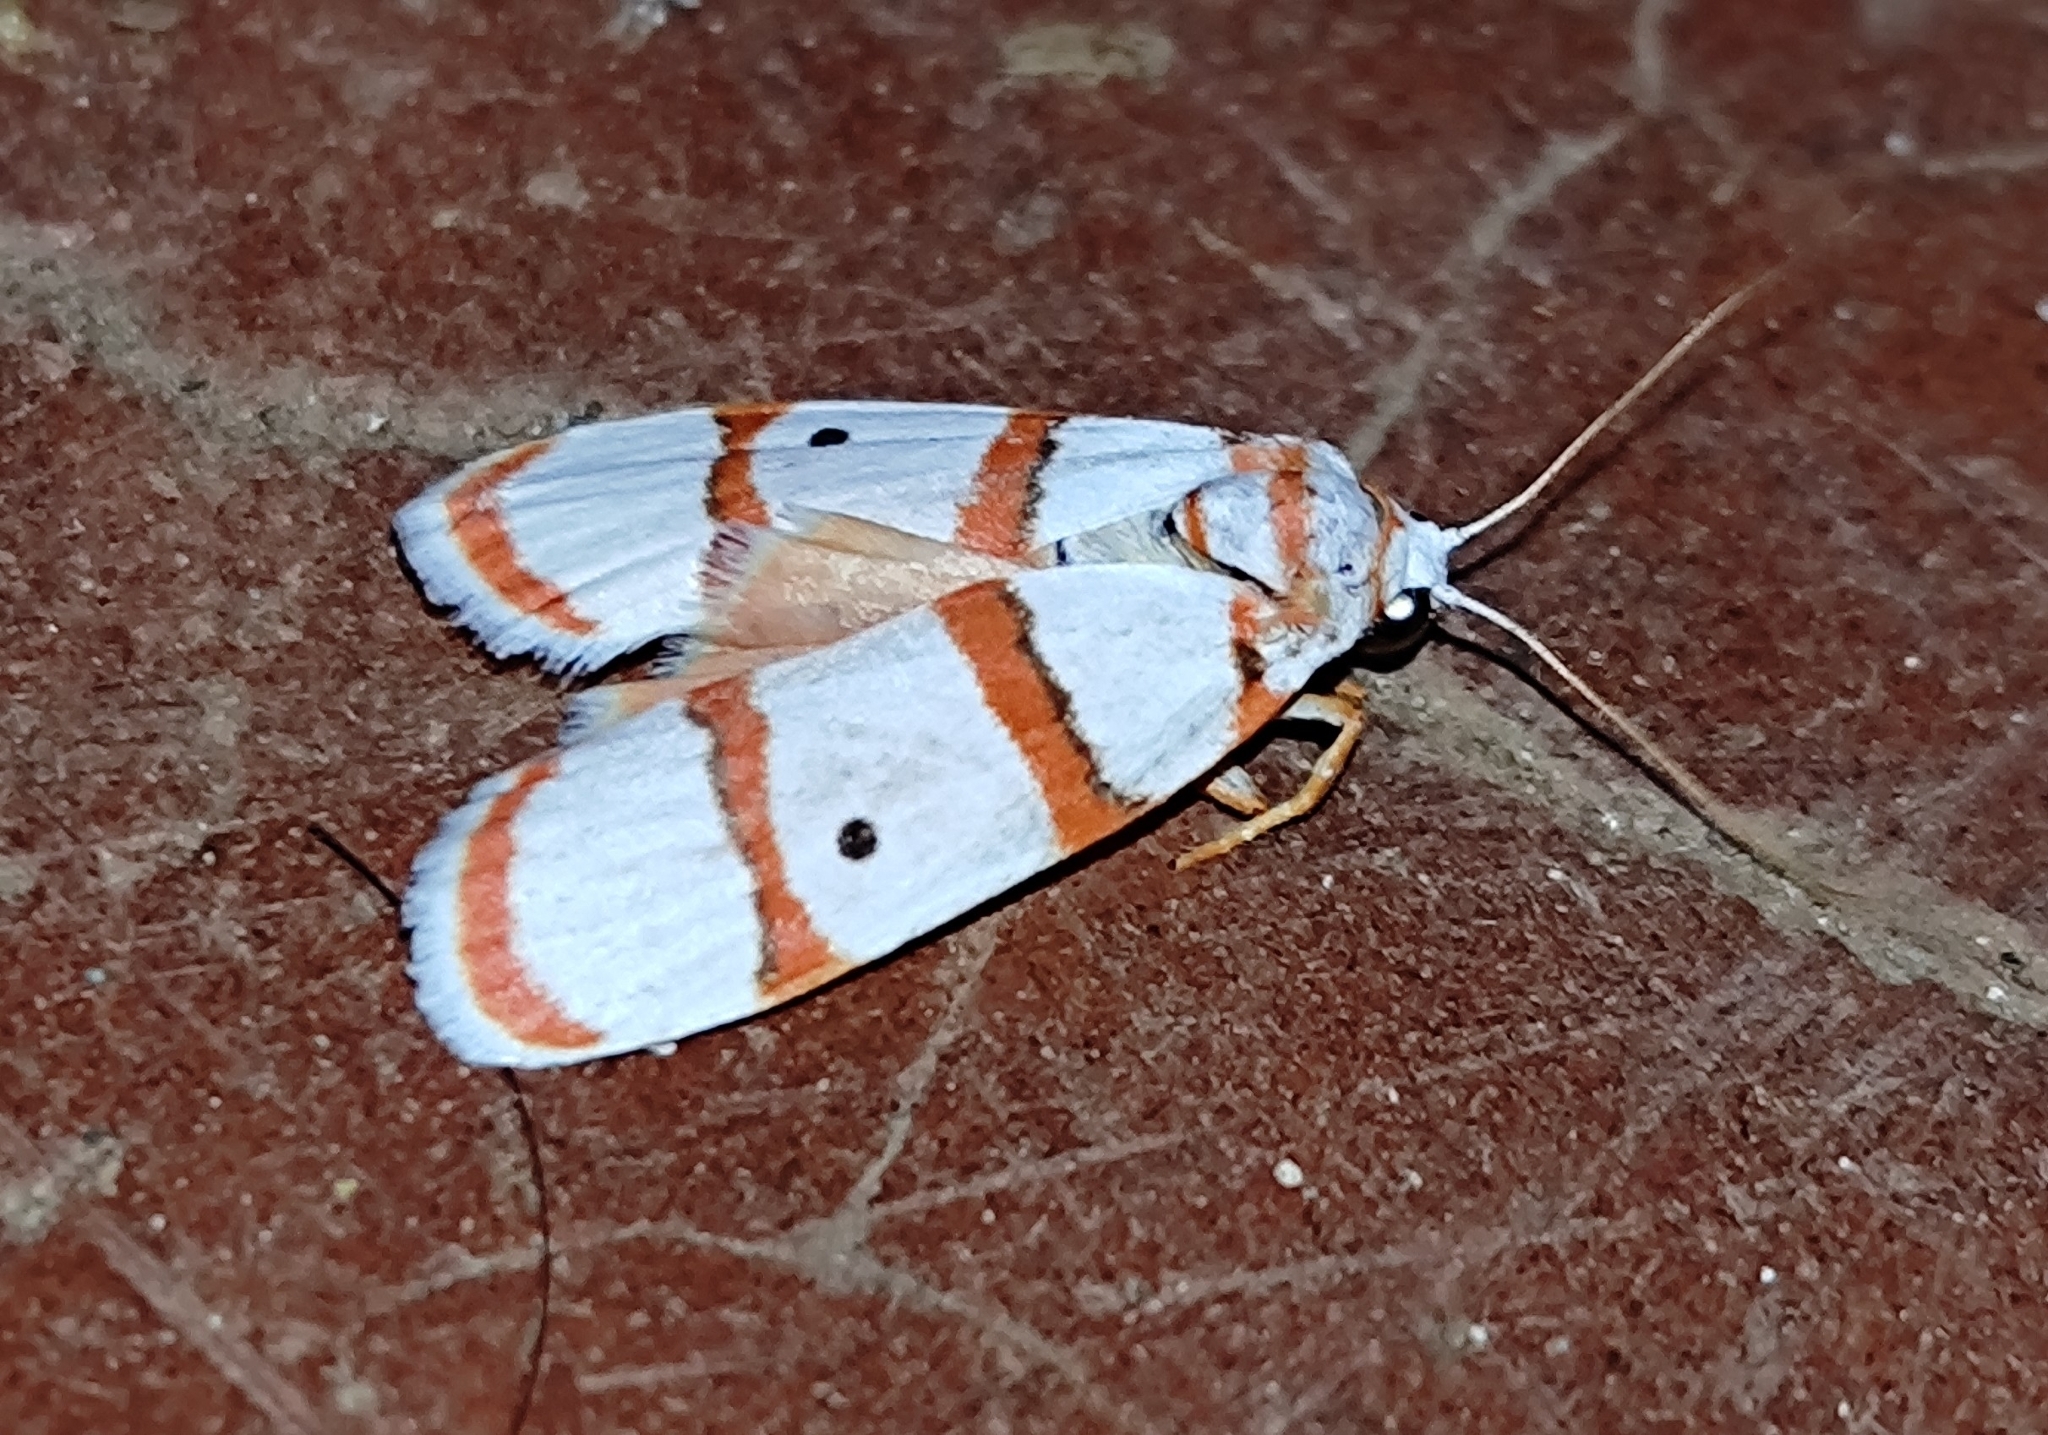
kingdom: Animalia
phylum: Arthropoda
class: Insecta
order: Lepidoptera
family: Erebidae
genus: Cyana
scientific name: Cyana peregrina
